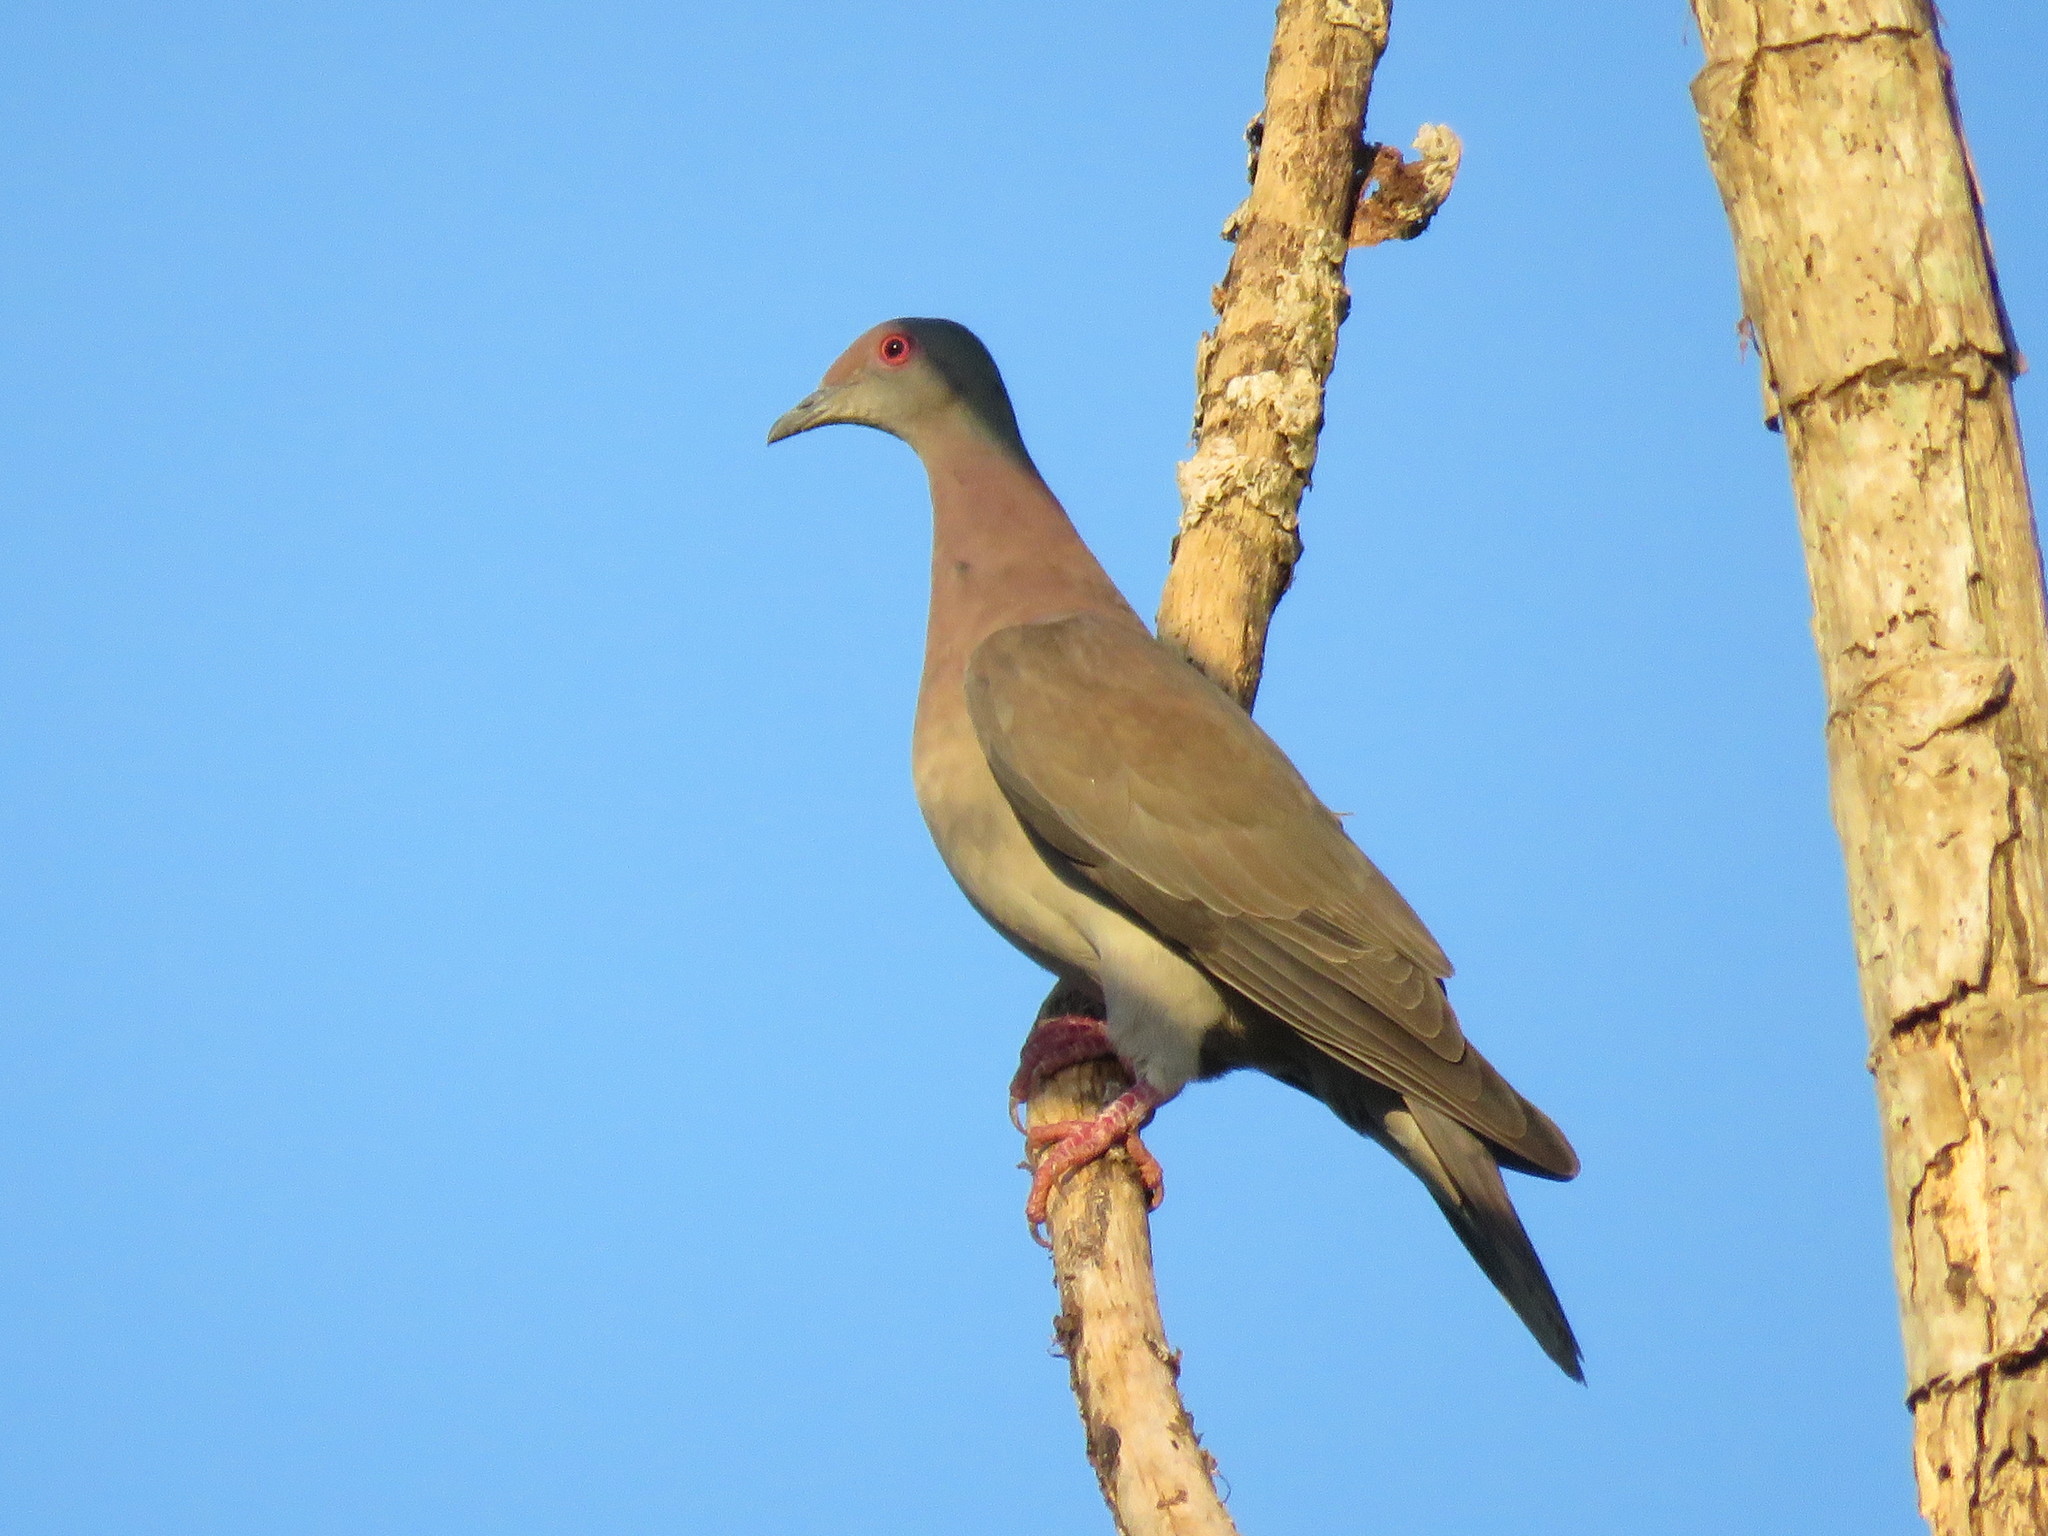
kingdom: Animalia
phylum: Chordata
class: Aves
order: Columbiformes
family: Columbidae
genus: Patagioenas
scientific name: Patagioenas cayennensis
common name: Pale-vented pigeon
